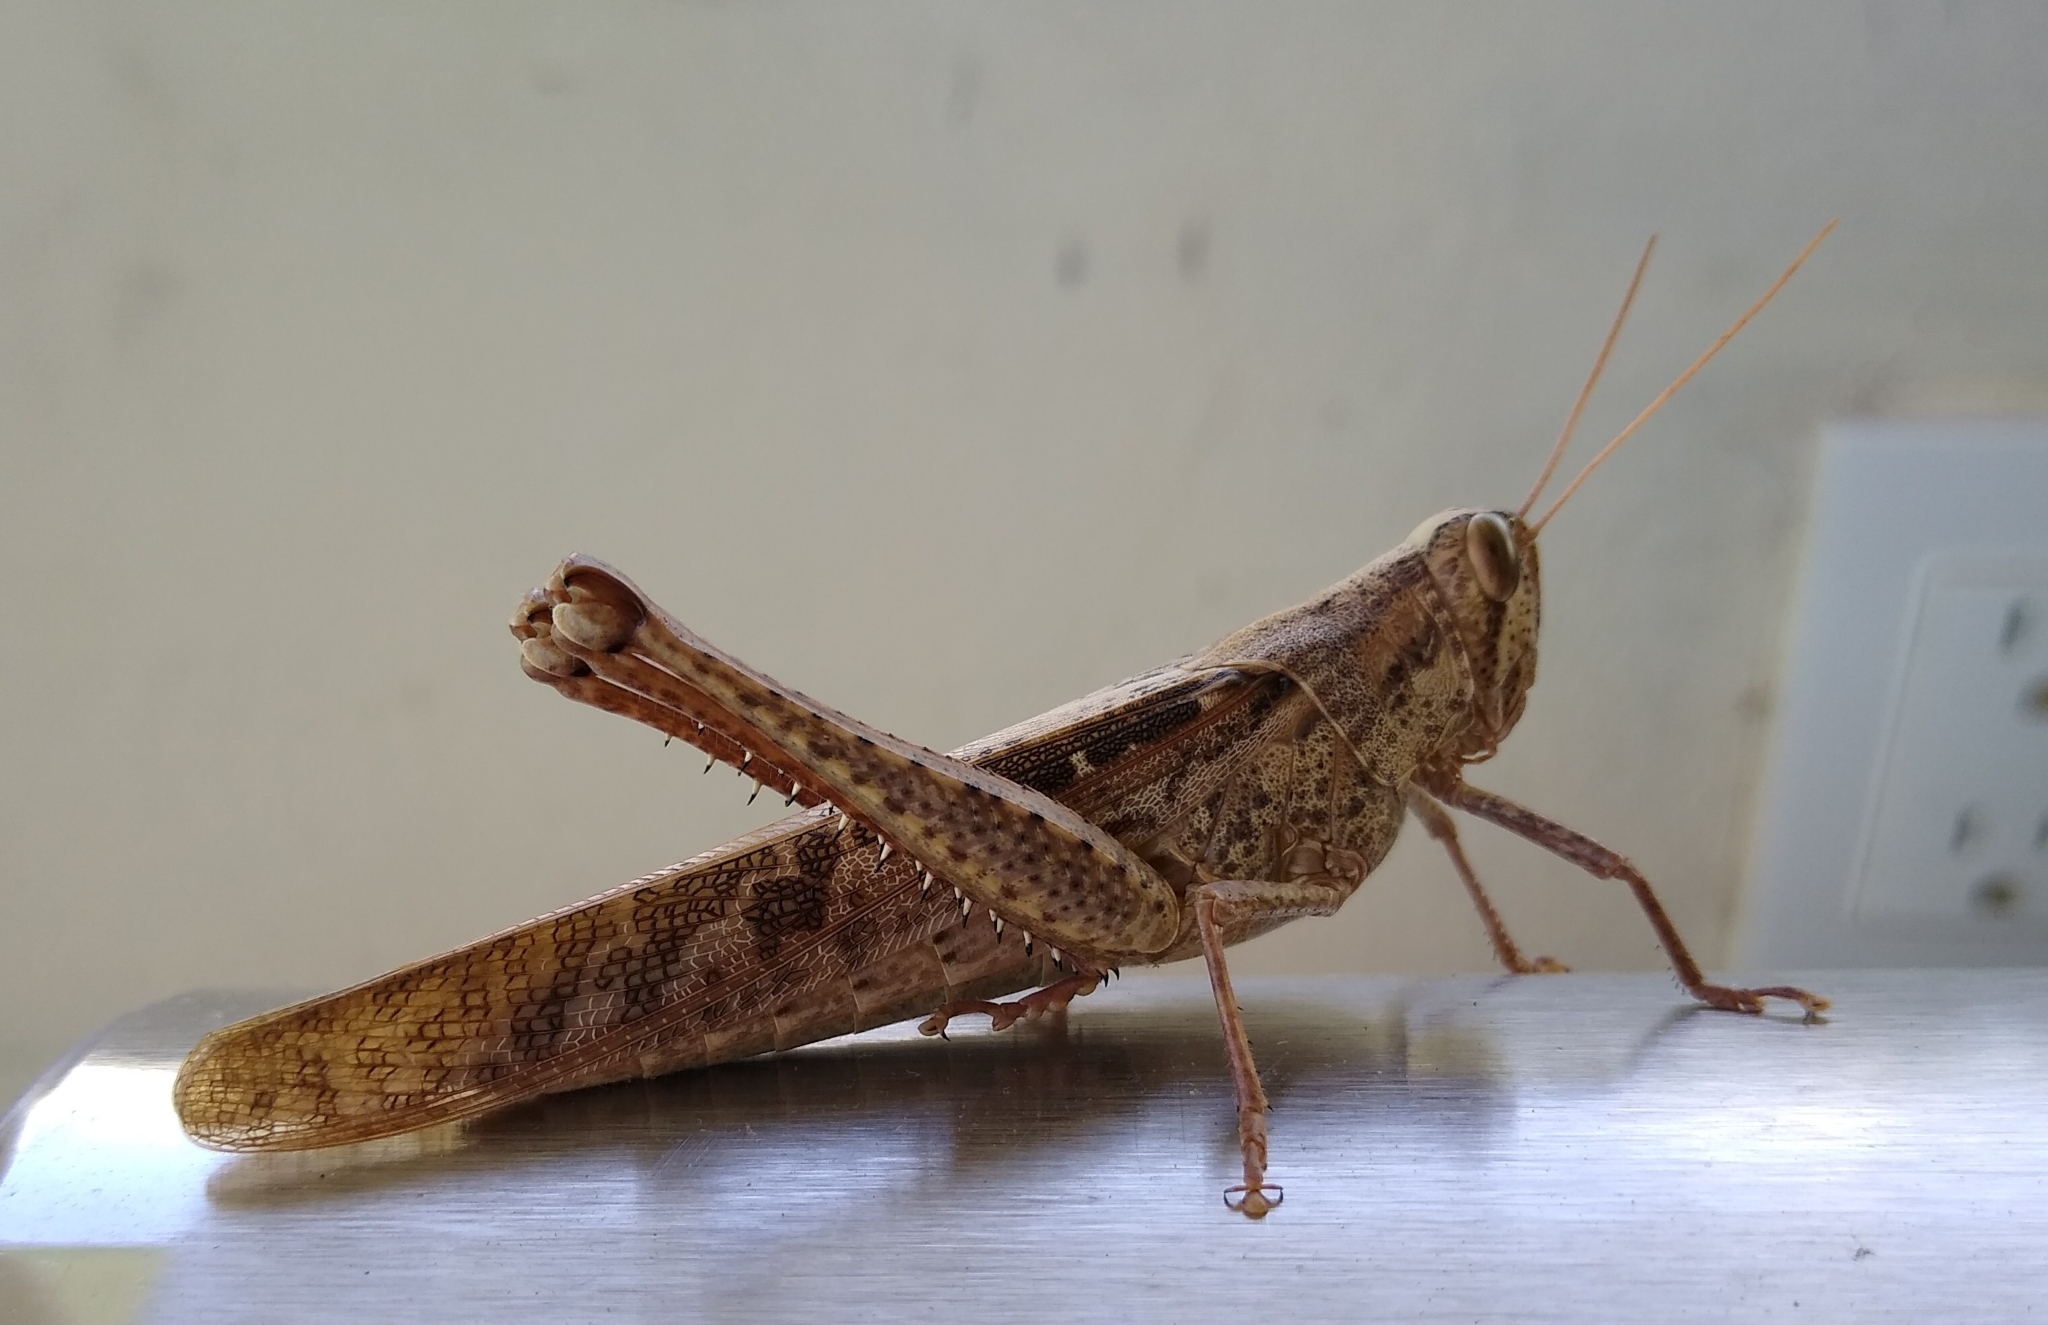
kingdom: Animalia
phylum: Arthropoda
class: Insecta
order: Orthoptera
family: Acrididae
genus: Schistocerca
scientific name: Schistocerca nitens
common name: Vagrant grasshopper
